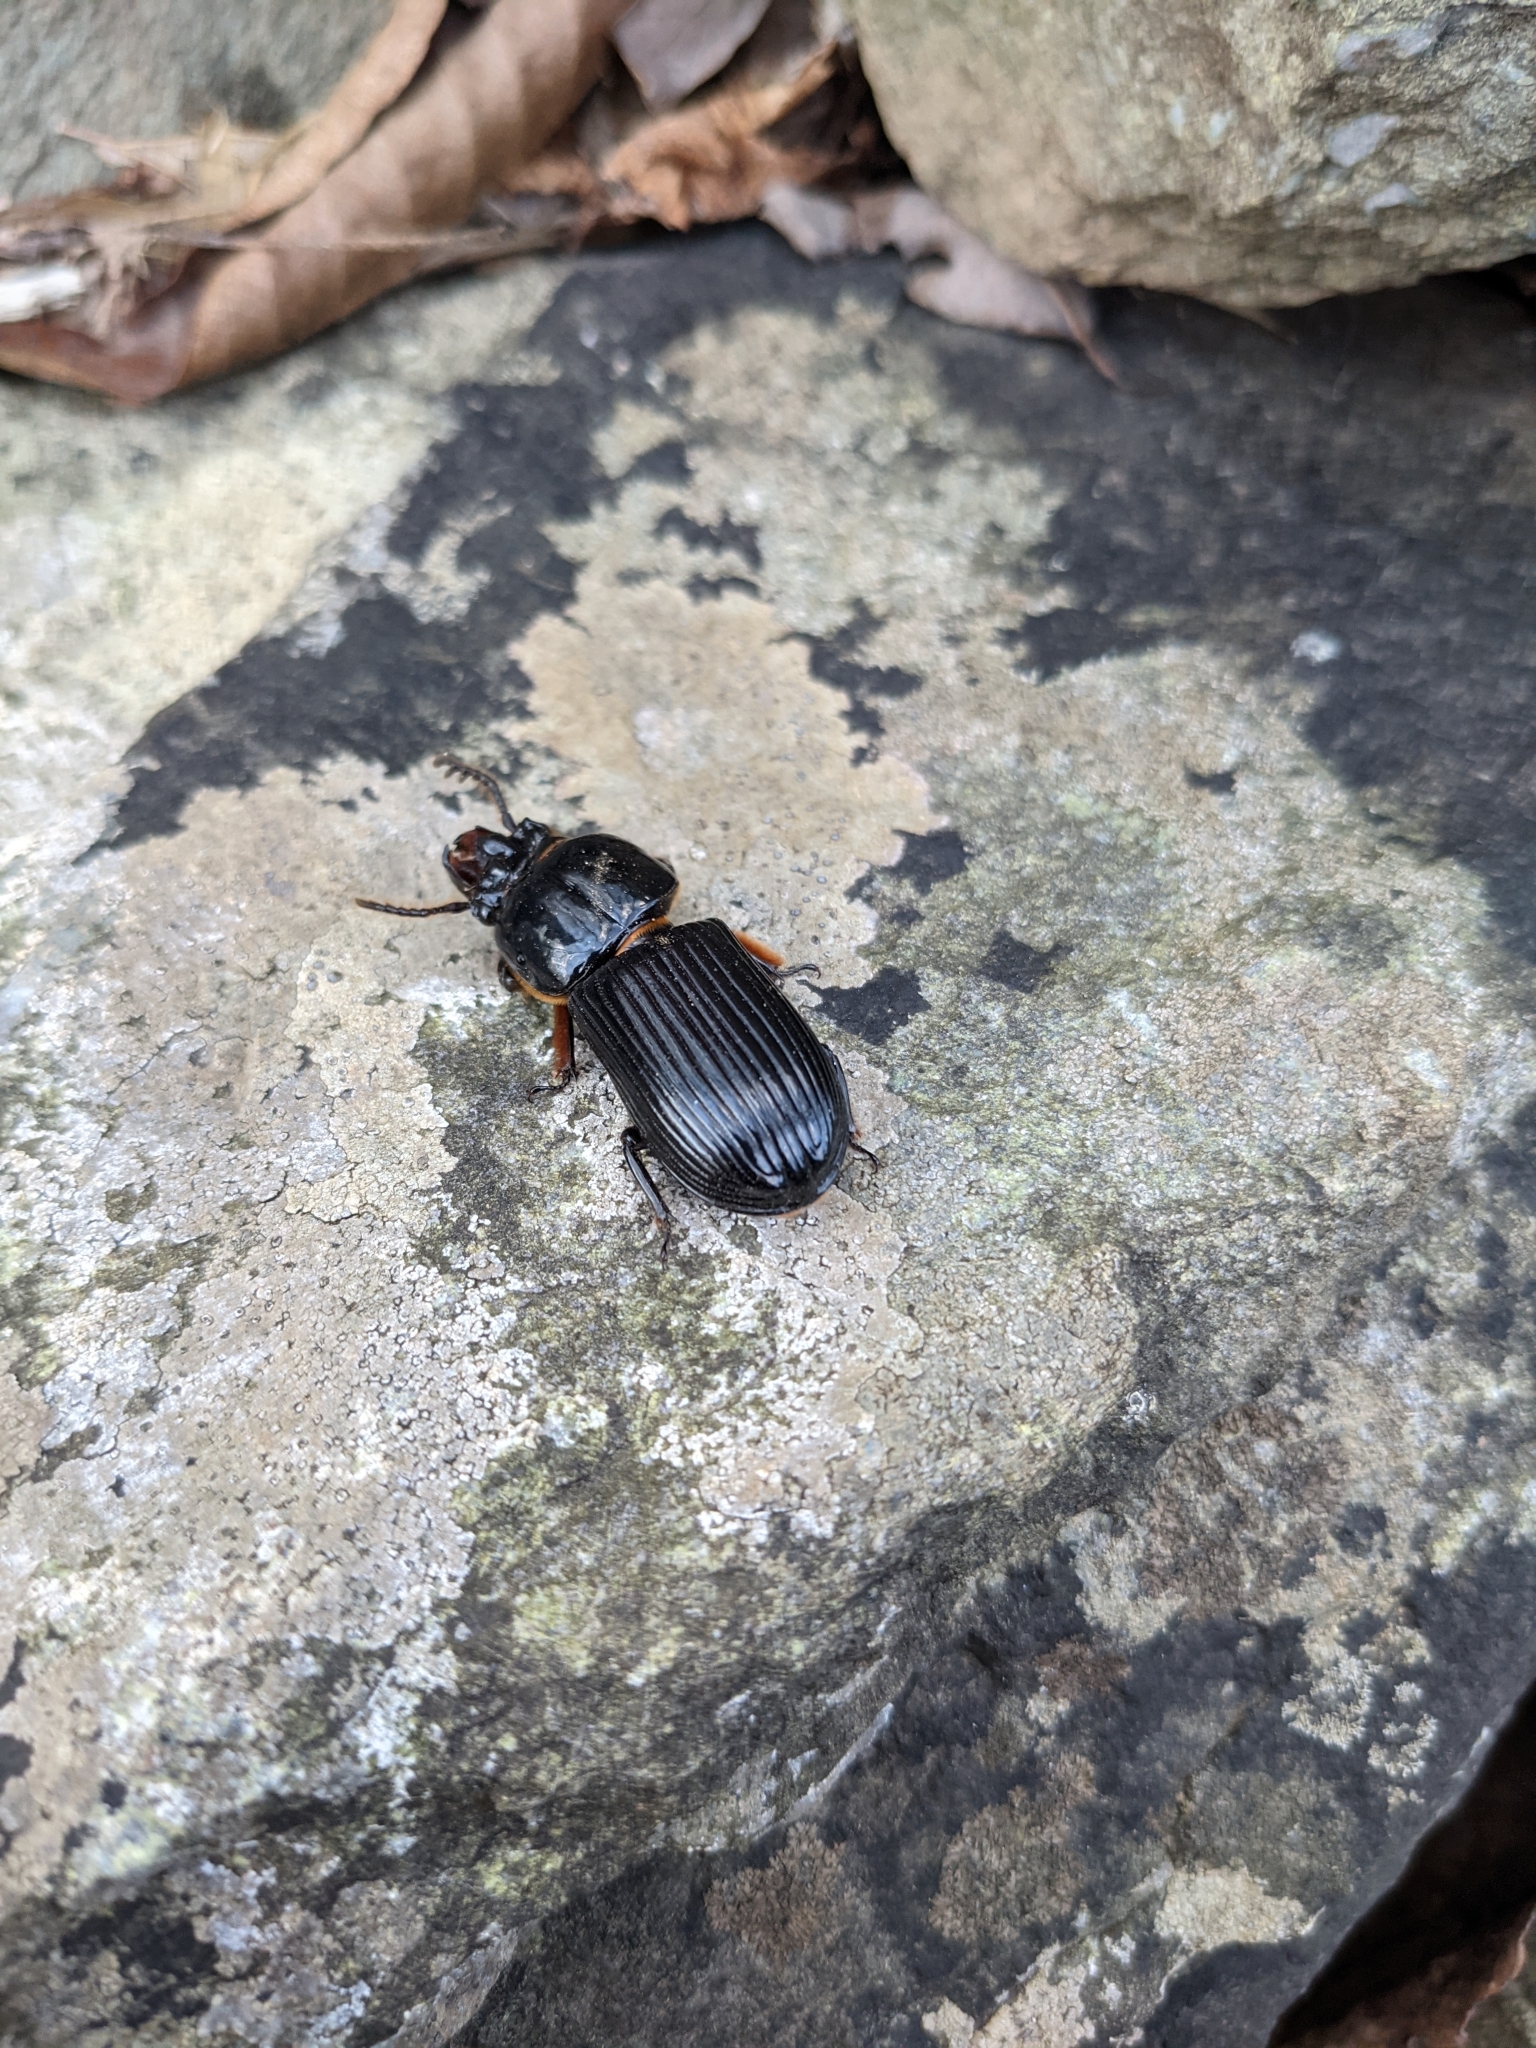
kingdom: Animalia
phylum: Arthropoda
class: Insecta
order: Coleoptera
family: Passalidae
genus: Odontotaenius
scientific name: Odontotaenius disjunctus
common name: Patent leather beetle
